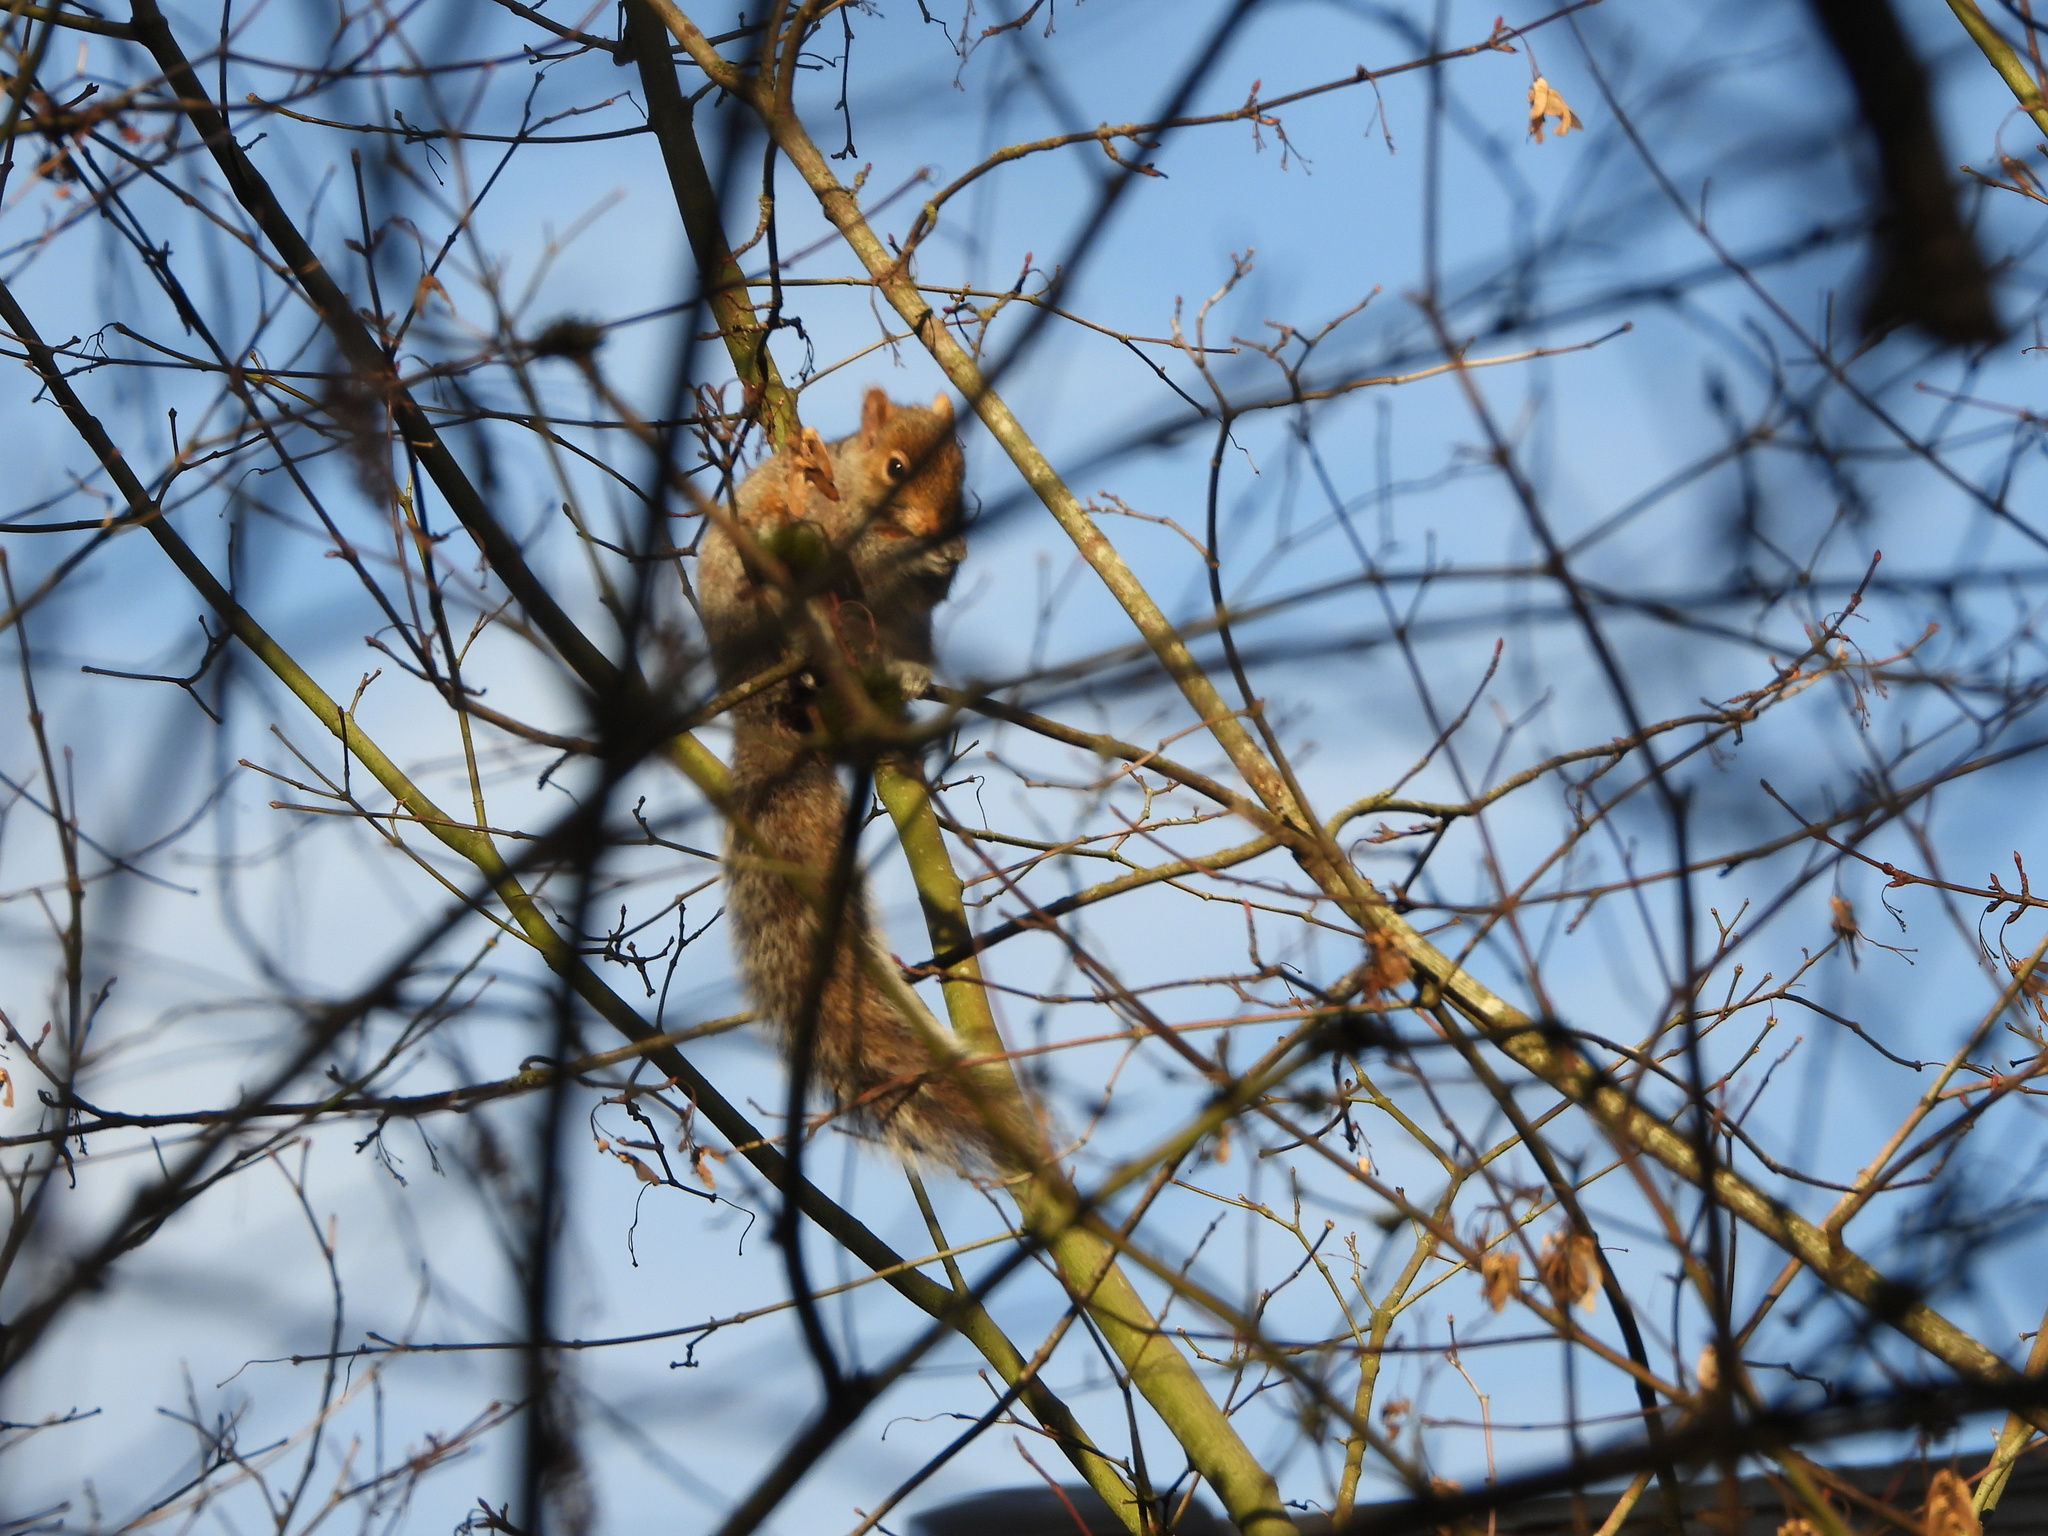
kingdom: Animalia
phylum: Chordata
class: Mammalia
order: Rodentia
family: Sciuridae
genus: Sciurus
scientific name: Sciurus carolinensis
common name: Eastern gray squirrel
